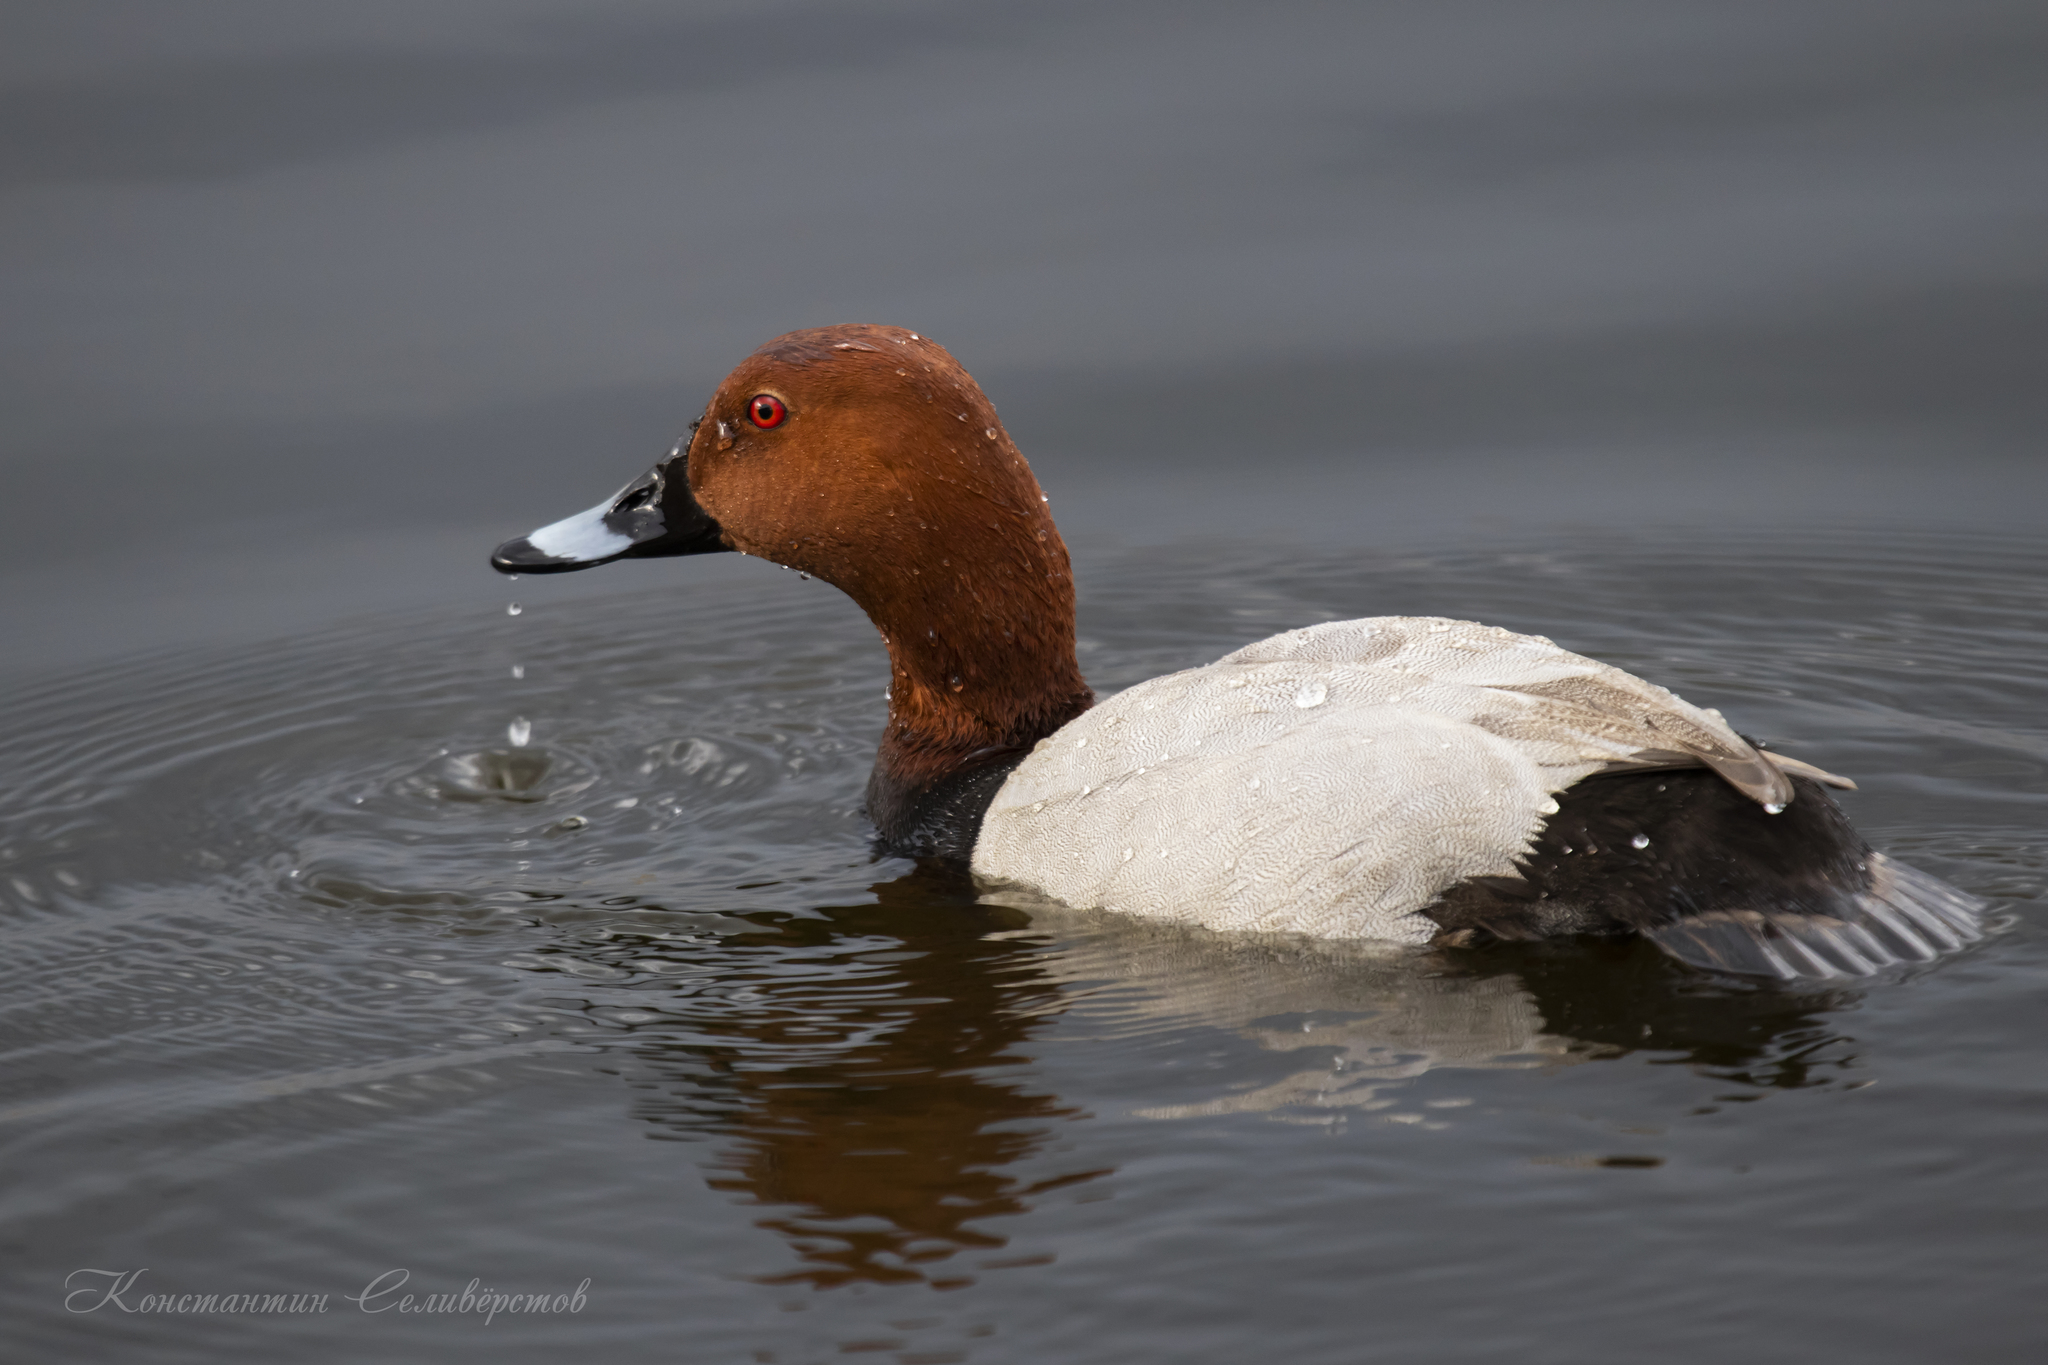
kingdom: Animalia
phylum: Chordata
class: Aves
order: Anseriformes
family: Anatidae
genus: Aythya
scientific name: Aythya ferina
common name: Common pochard
